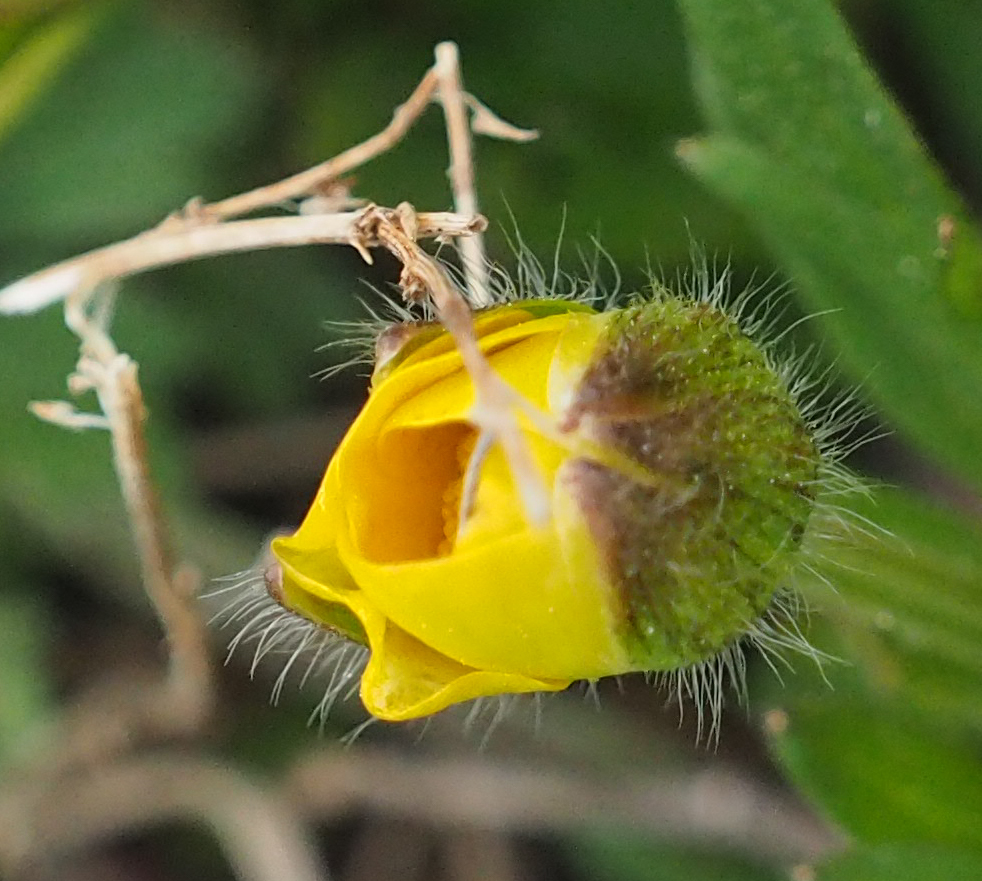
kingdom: Plantae
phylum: Tracheophyta
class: Magnoliopsida
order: Ranunculales
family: Ranunculaceae
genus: Ranunculus
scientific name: Ranunculus bulbosus
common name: Bulbous buttercup
